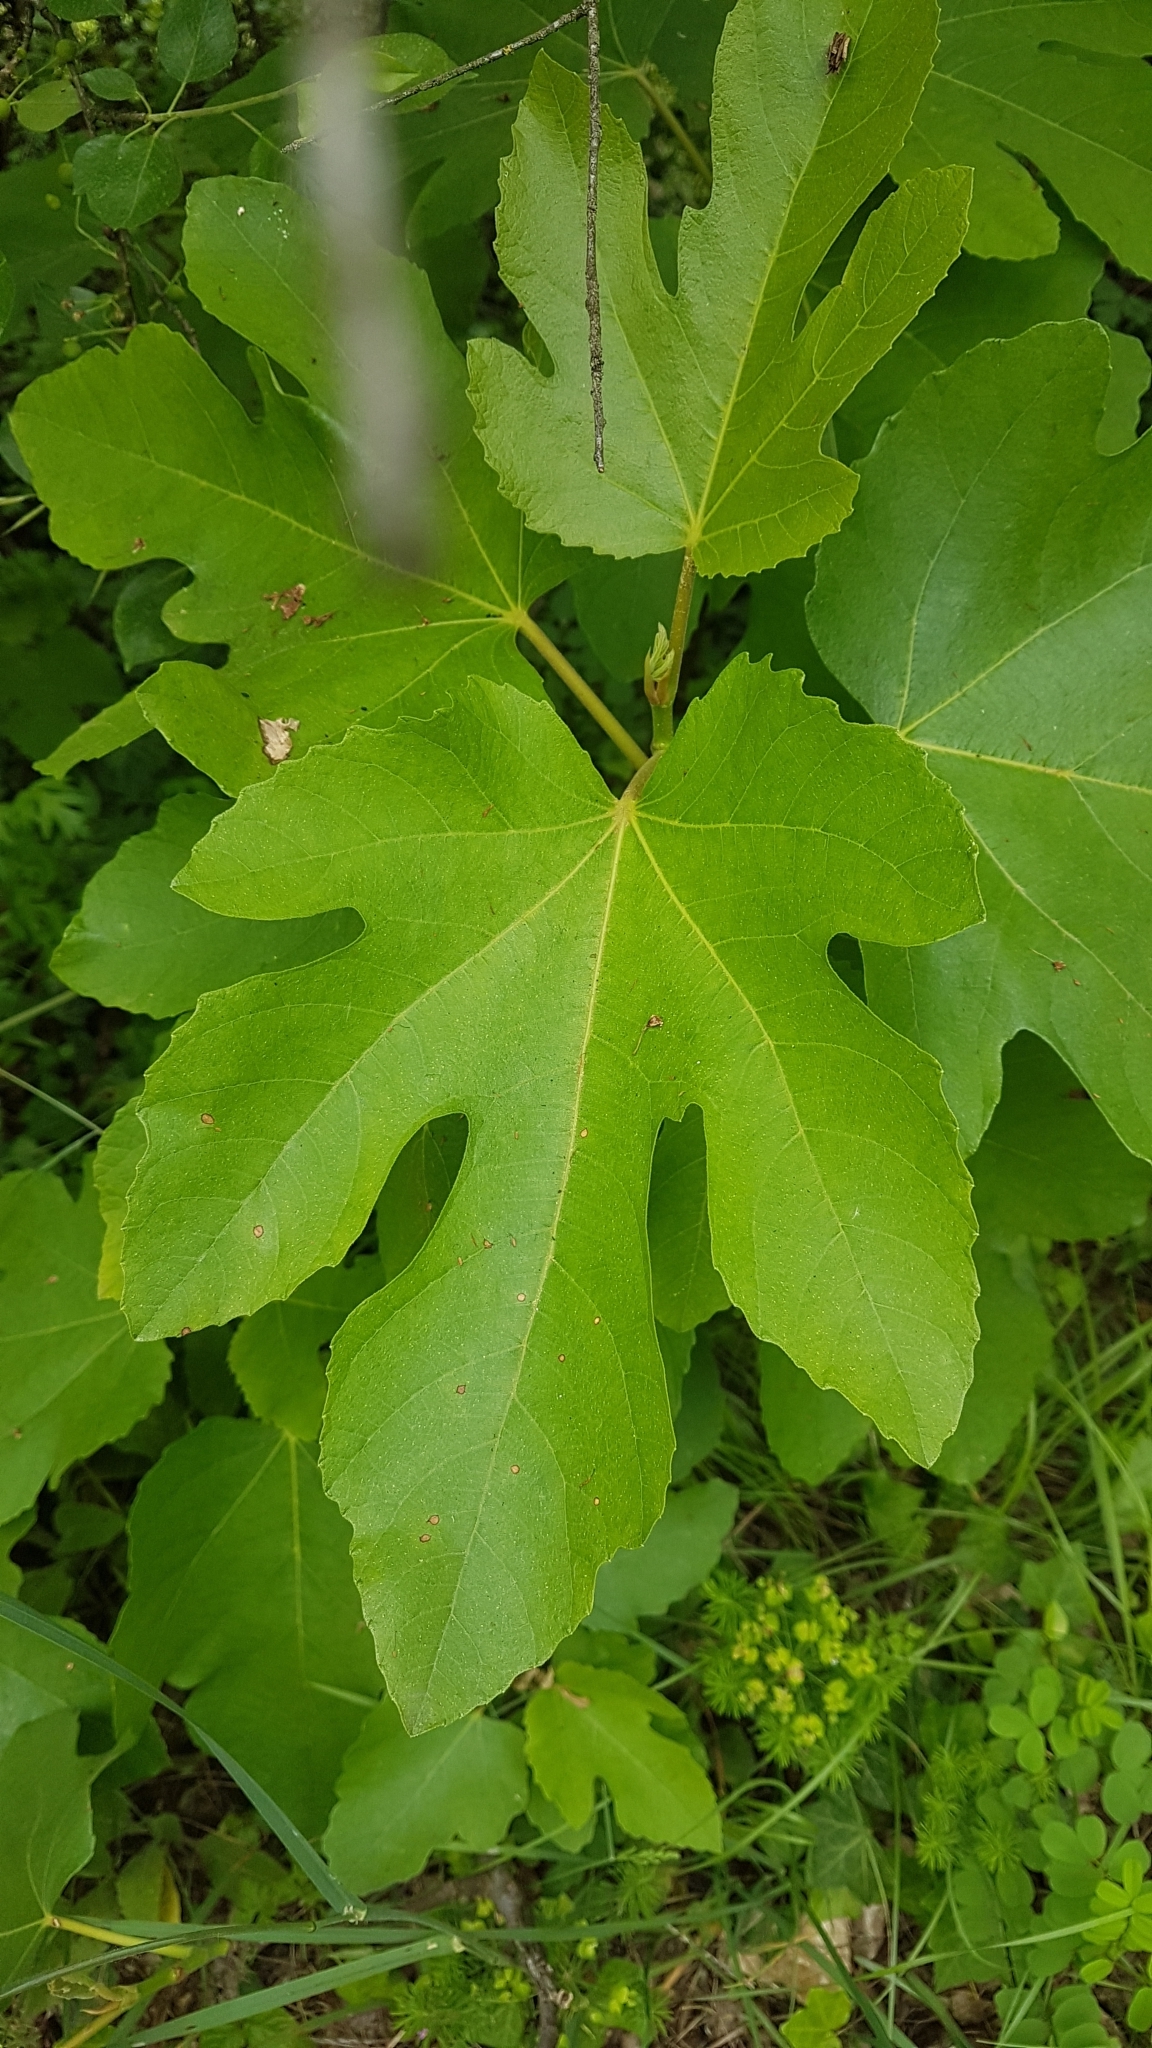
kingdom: Plantae
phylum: Tracheophyta
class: Magnoliopsida
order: Rosales
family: Moraceae
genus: Ficus
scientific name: Ficus carica
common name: Fig
